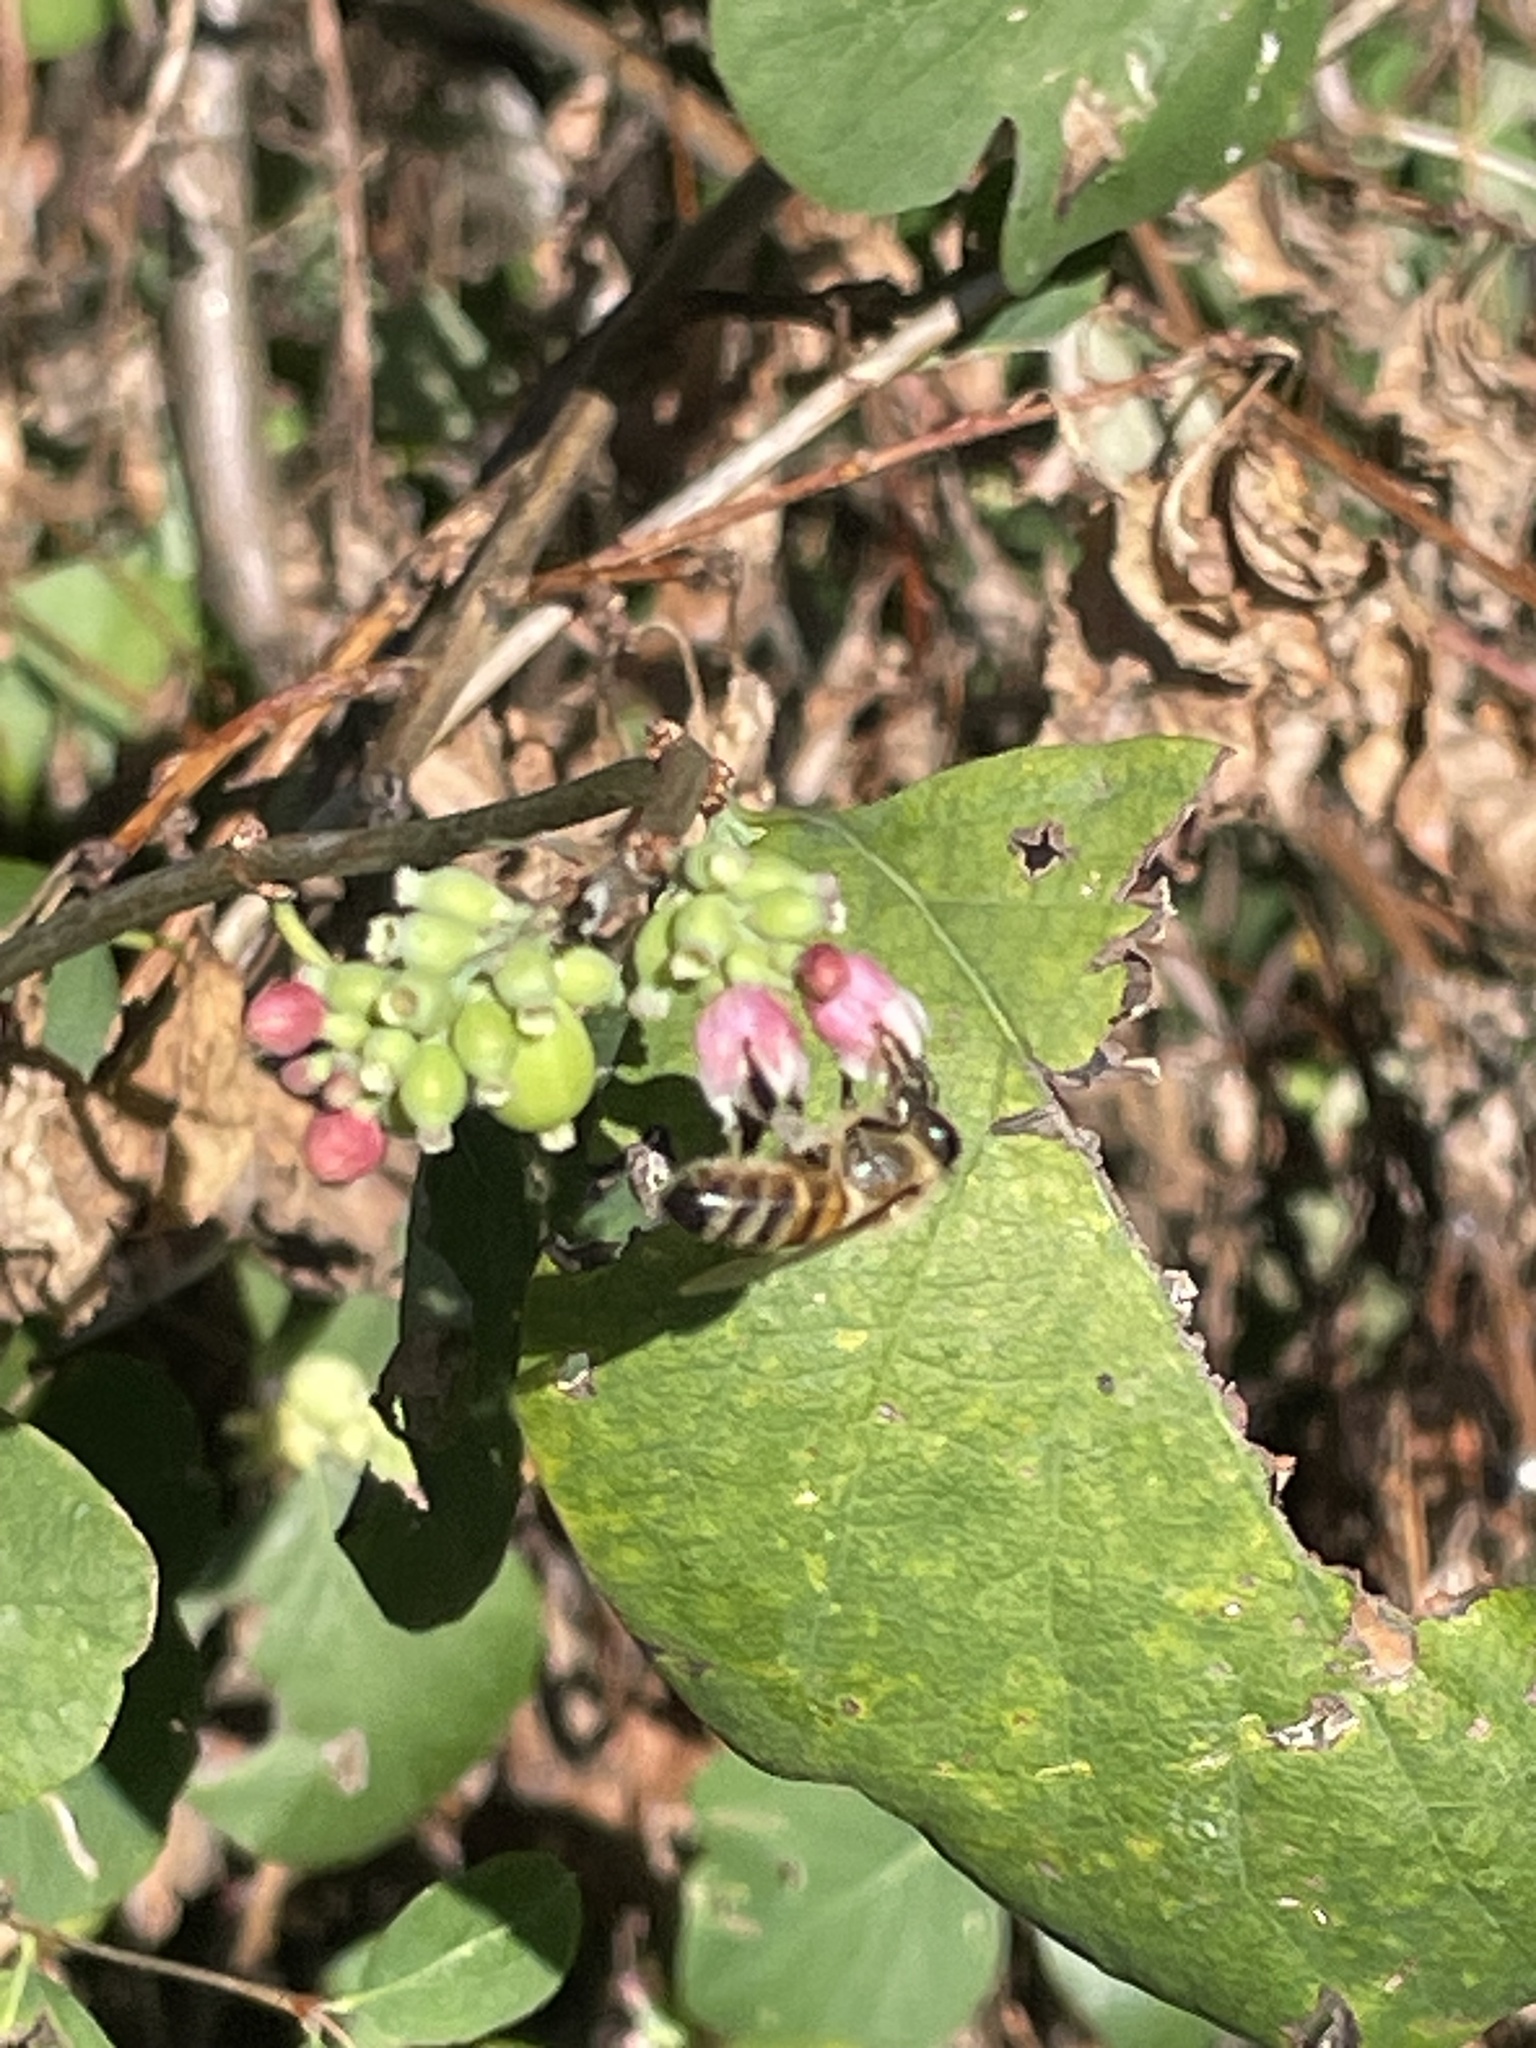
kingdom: Animalia
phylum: Arthropoda
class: Insecta
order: Hymenoptera
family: Apidae
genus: Apis
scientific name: Apis mellifera
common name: Honey bee
